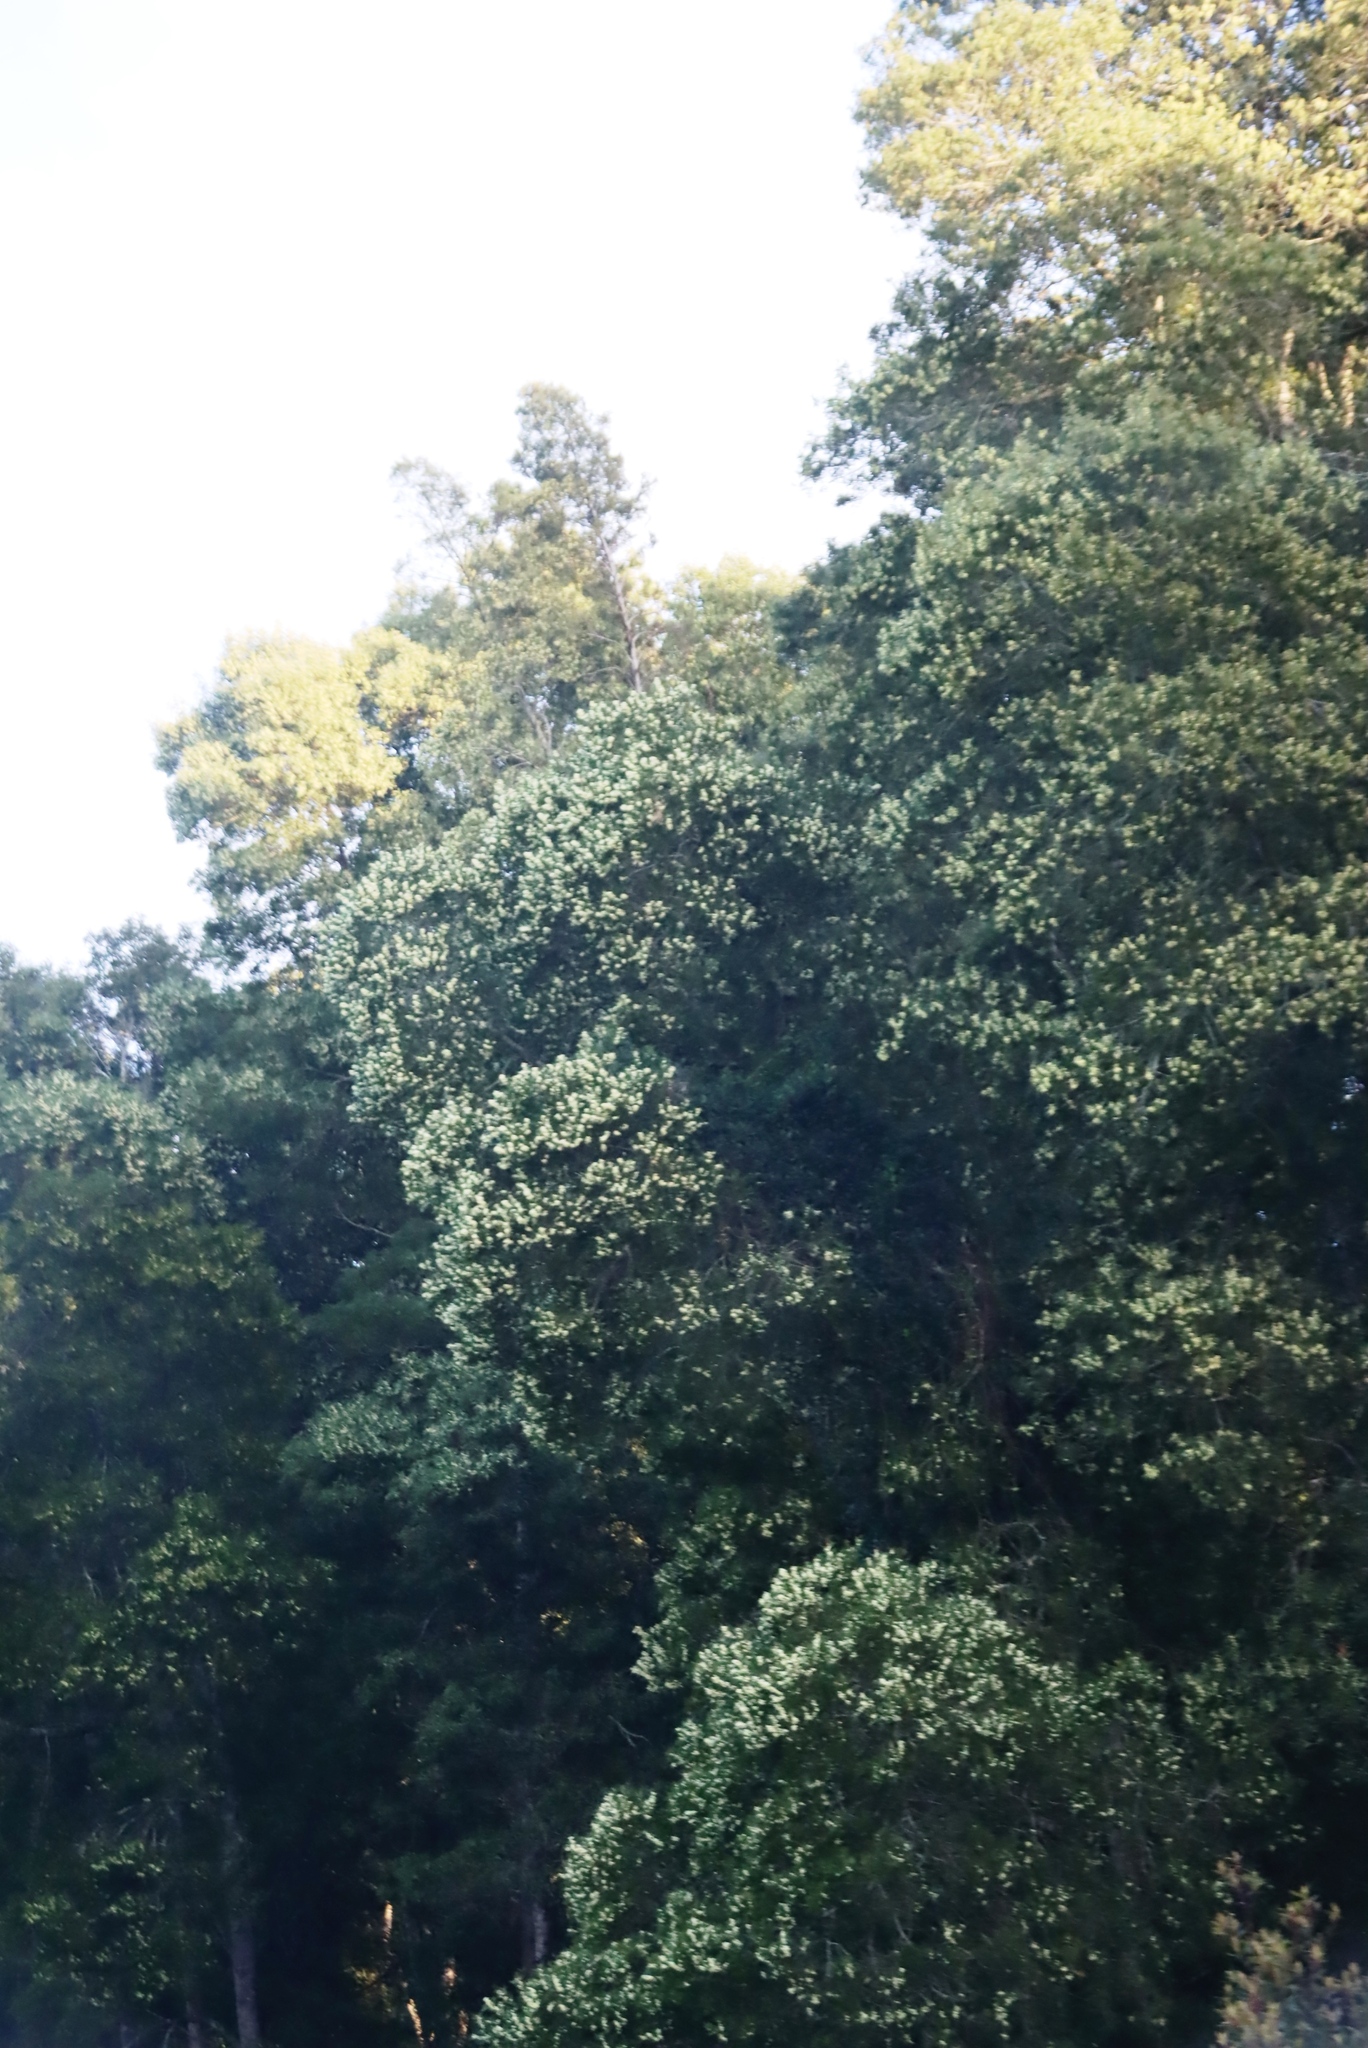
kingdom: Plantae
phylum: Tracheophyta
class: Magnoliopsida
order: Fabales
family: Fabaceae
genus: Acacia
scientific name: Acacia melanoxylon
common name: Blackwood
